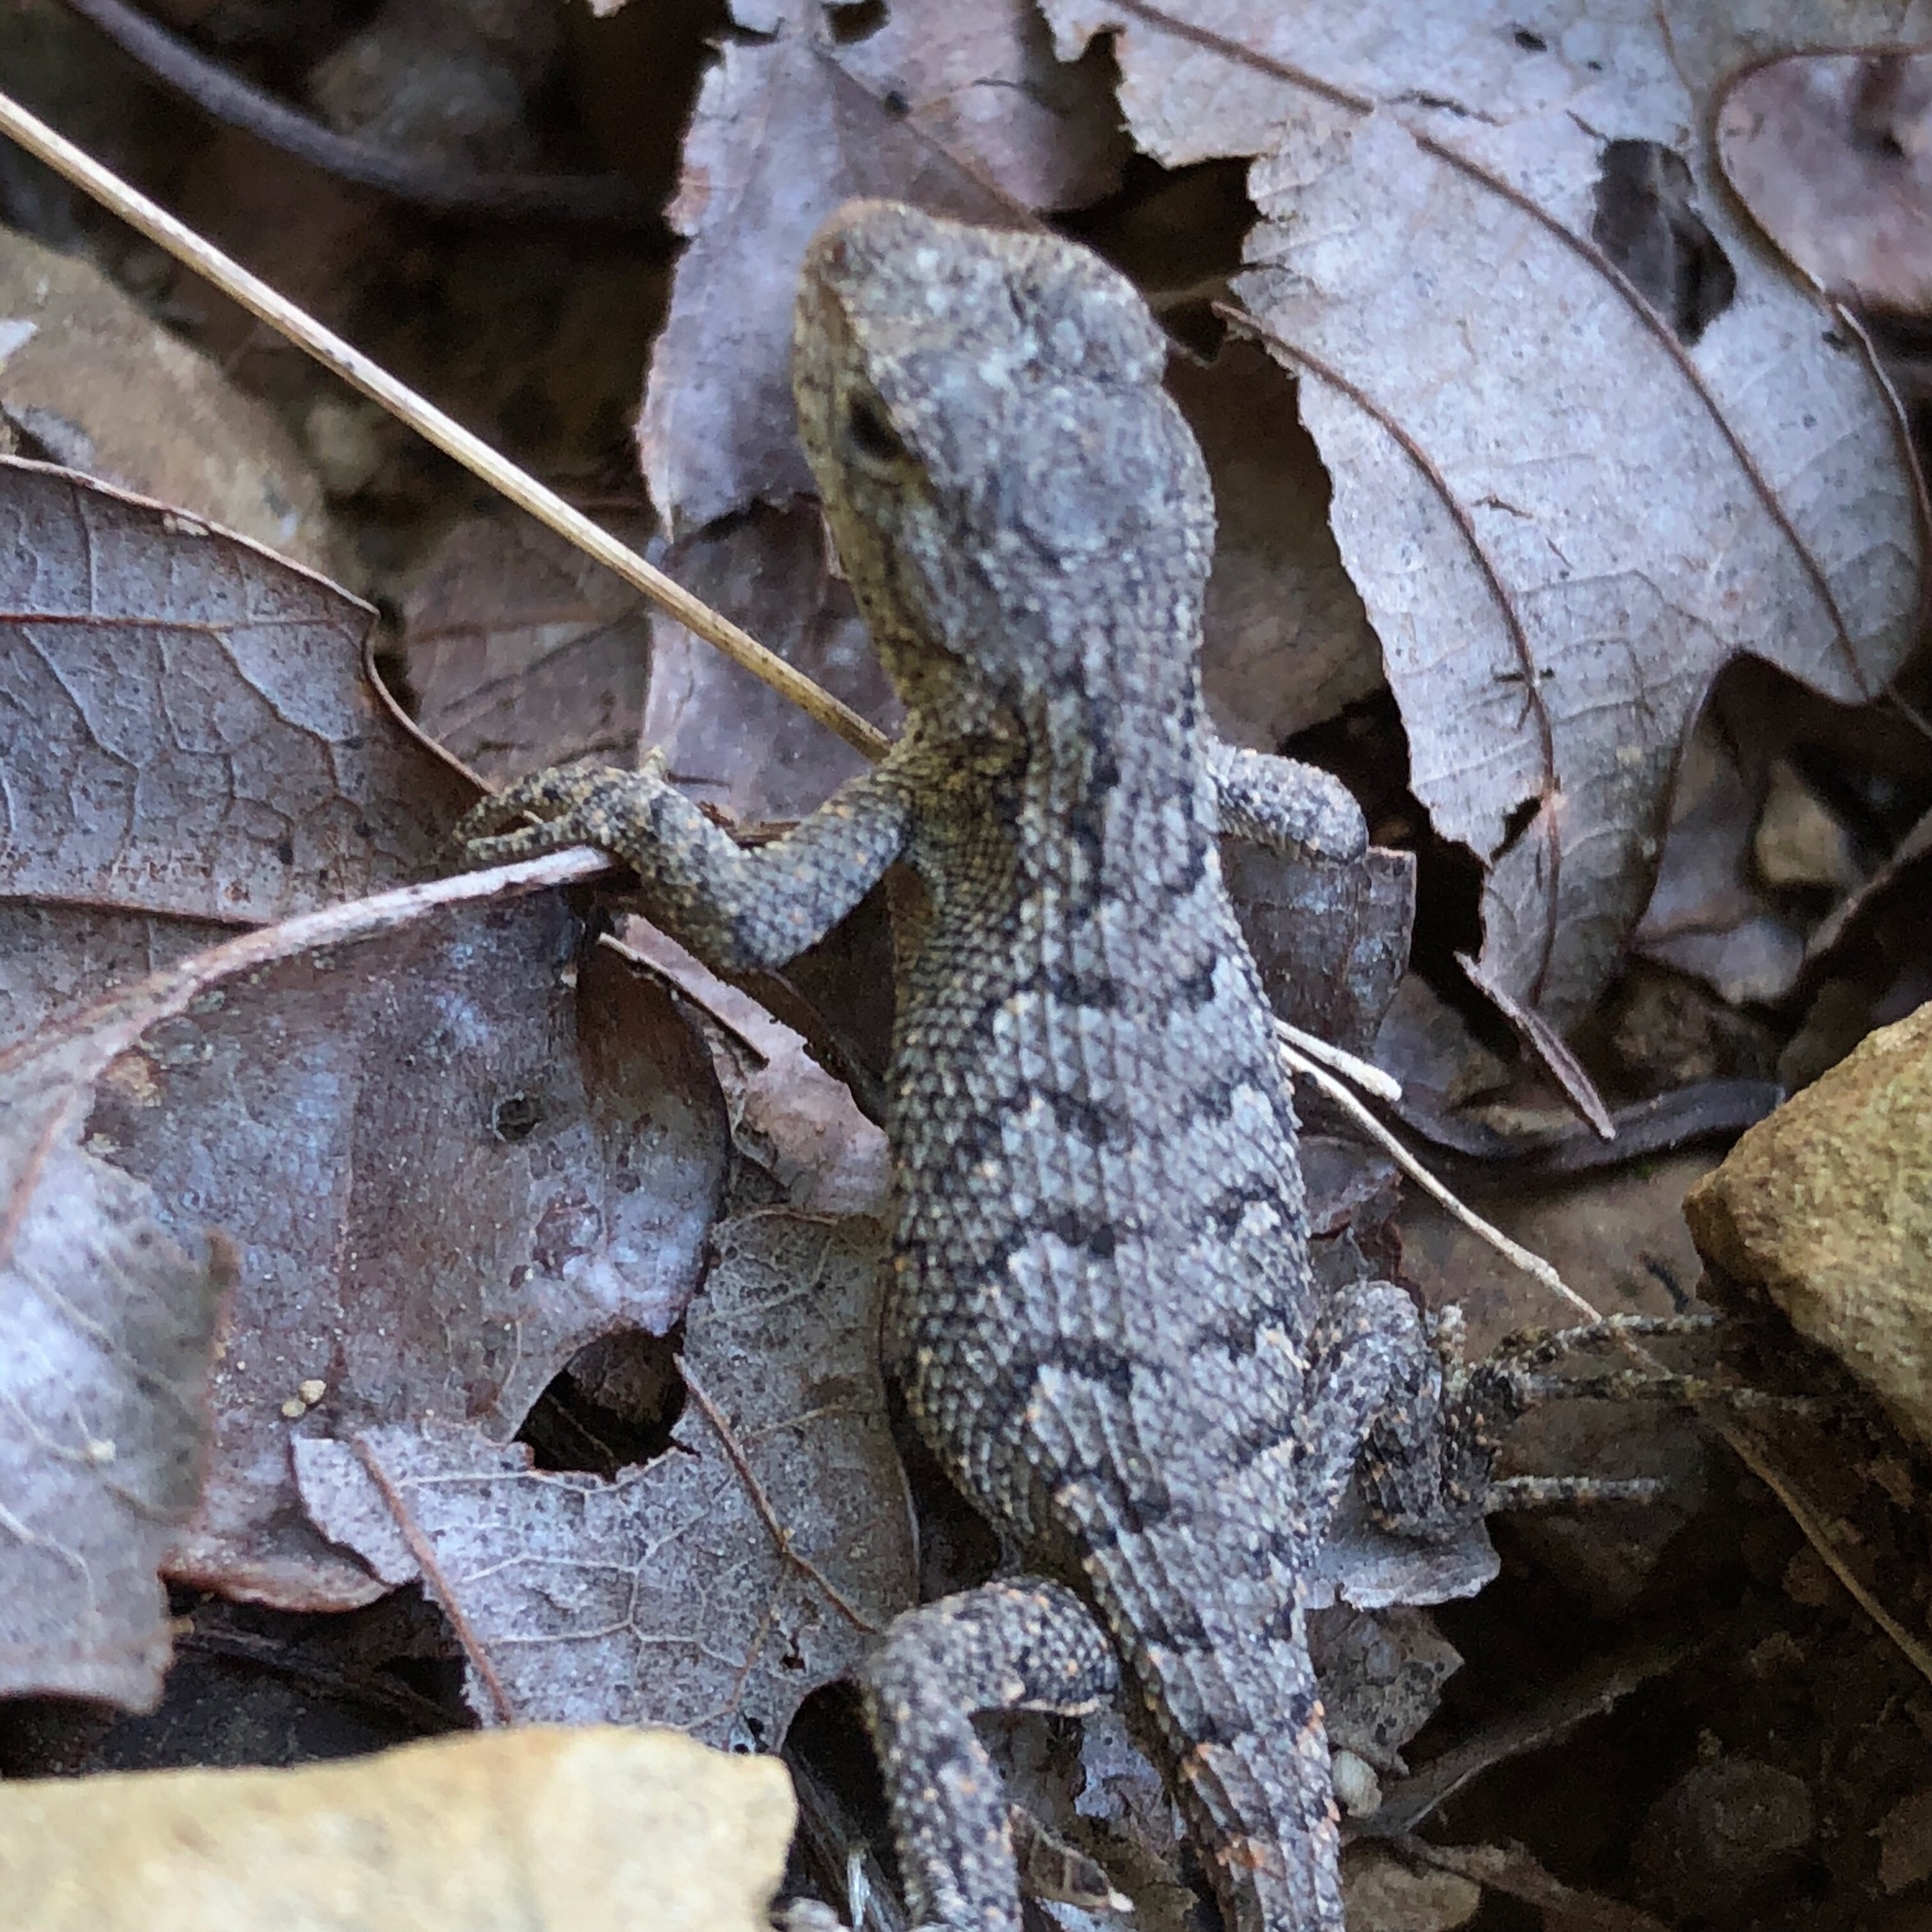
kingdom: Animalia
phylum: Chordata
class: Squamata
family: Phrynosomatidae
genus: Sceloporus
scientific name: Sceloporus undulatus
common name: Eastern fence lizard
